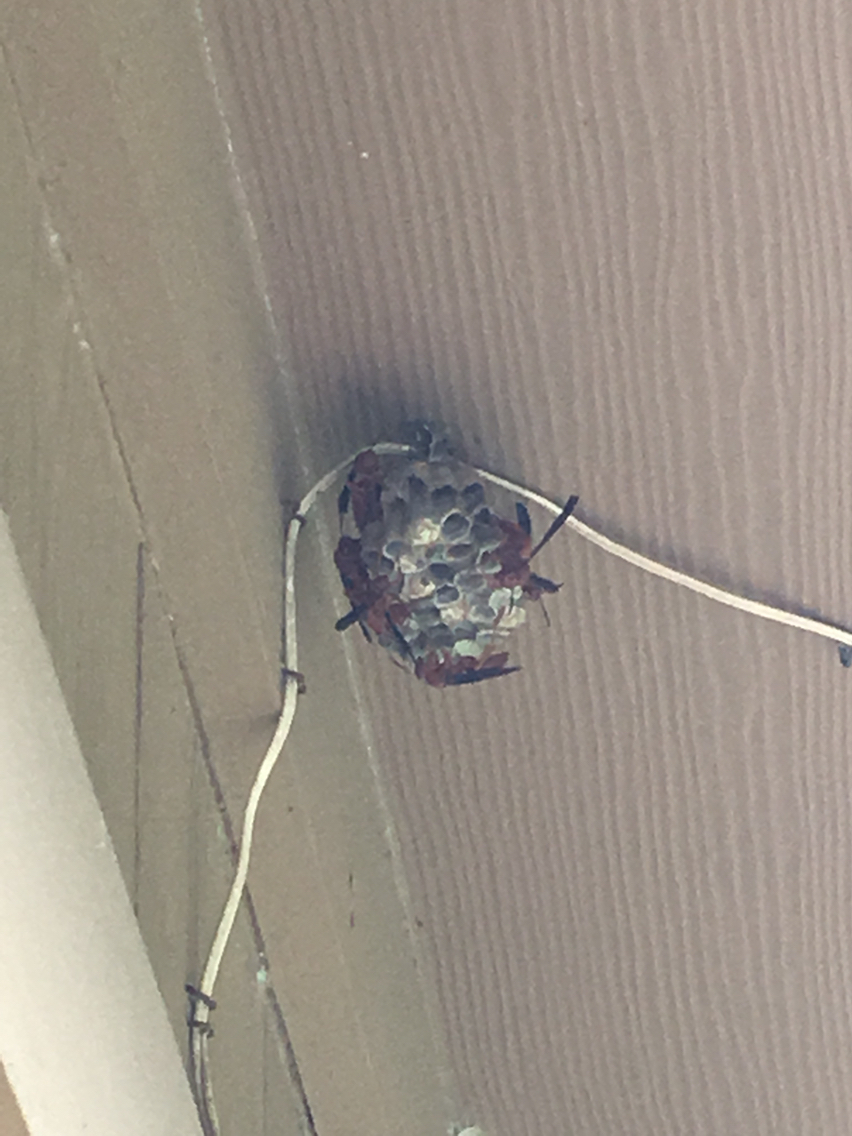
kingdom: Animalia
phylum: Arthropoda
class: Insecta
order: Hymenoptera
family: Eumenidae
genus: Polistes
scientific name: Polistes
